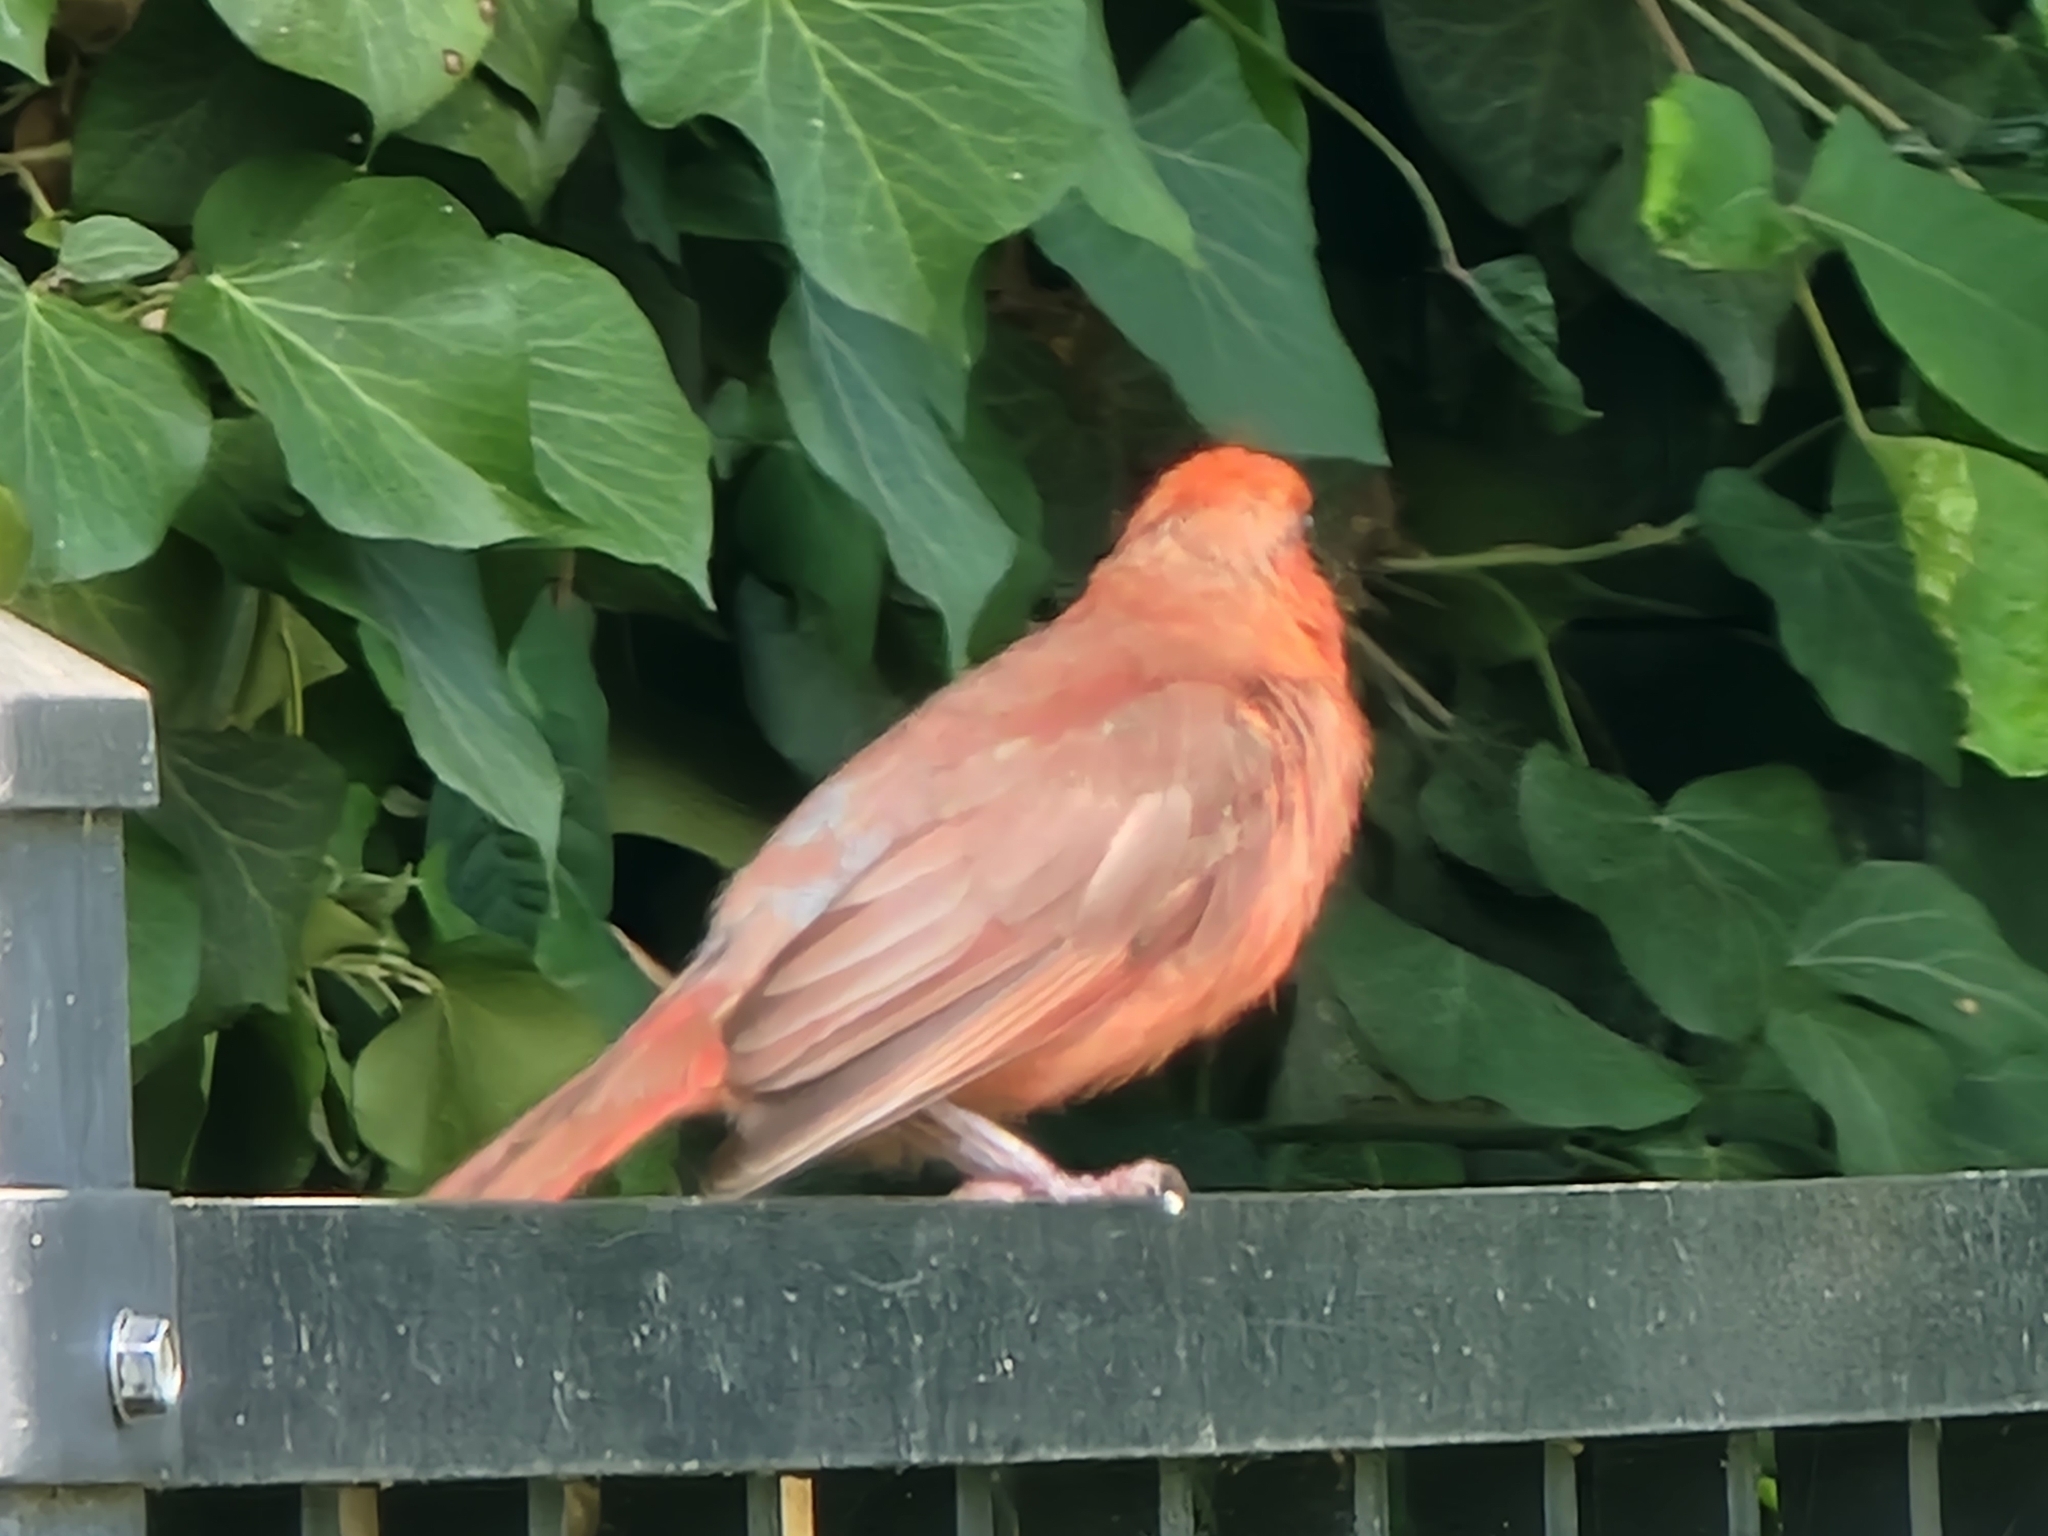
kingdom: Animalia
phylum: Chordata
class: Aves
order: Passeriformes
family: Cardinalidae
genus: Cardinalis
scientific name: Cardinalis cardinalis
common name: Northern cardinal
